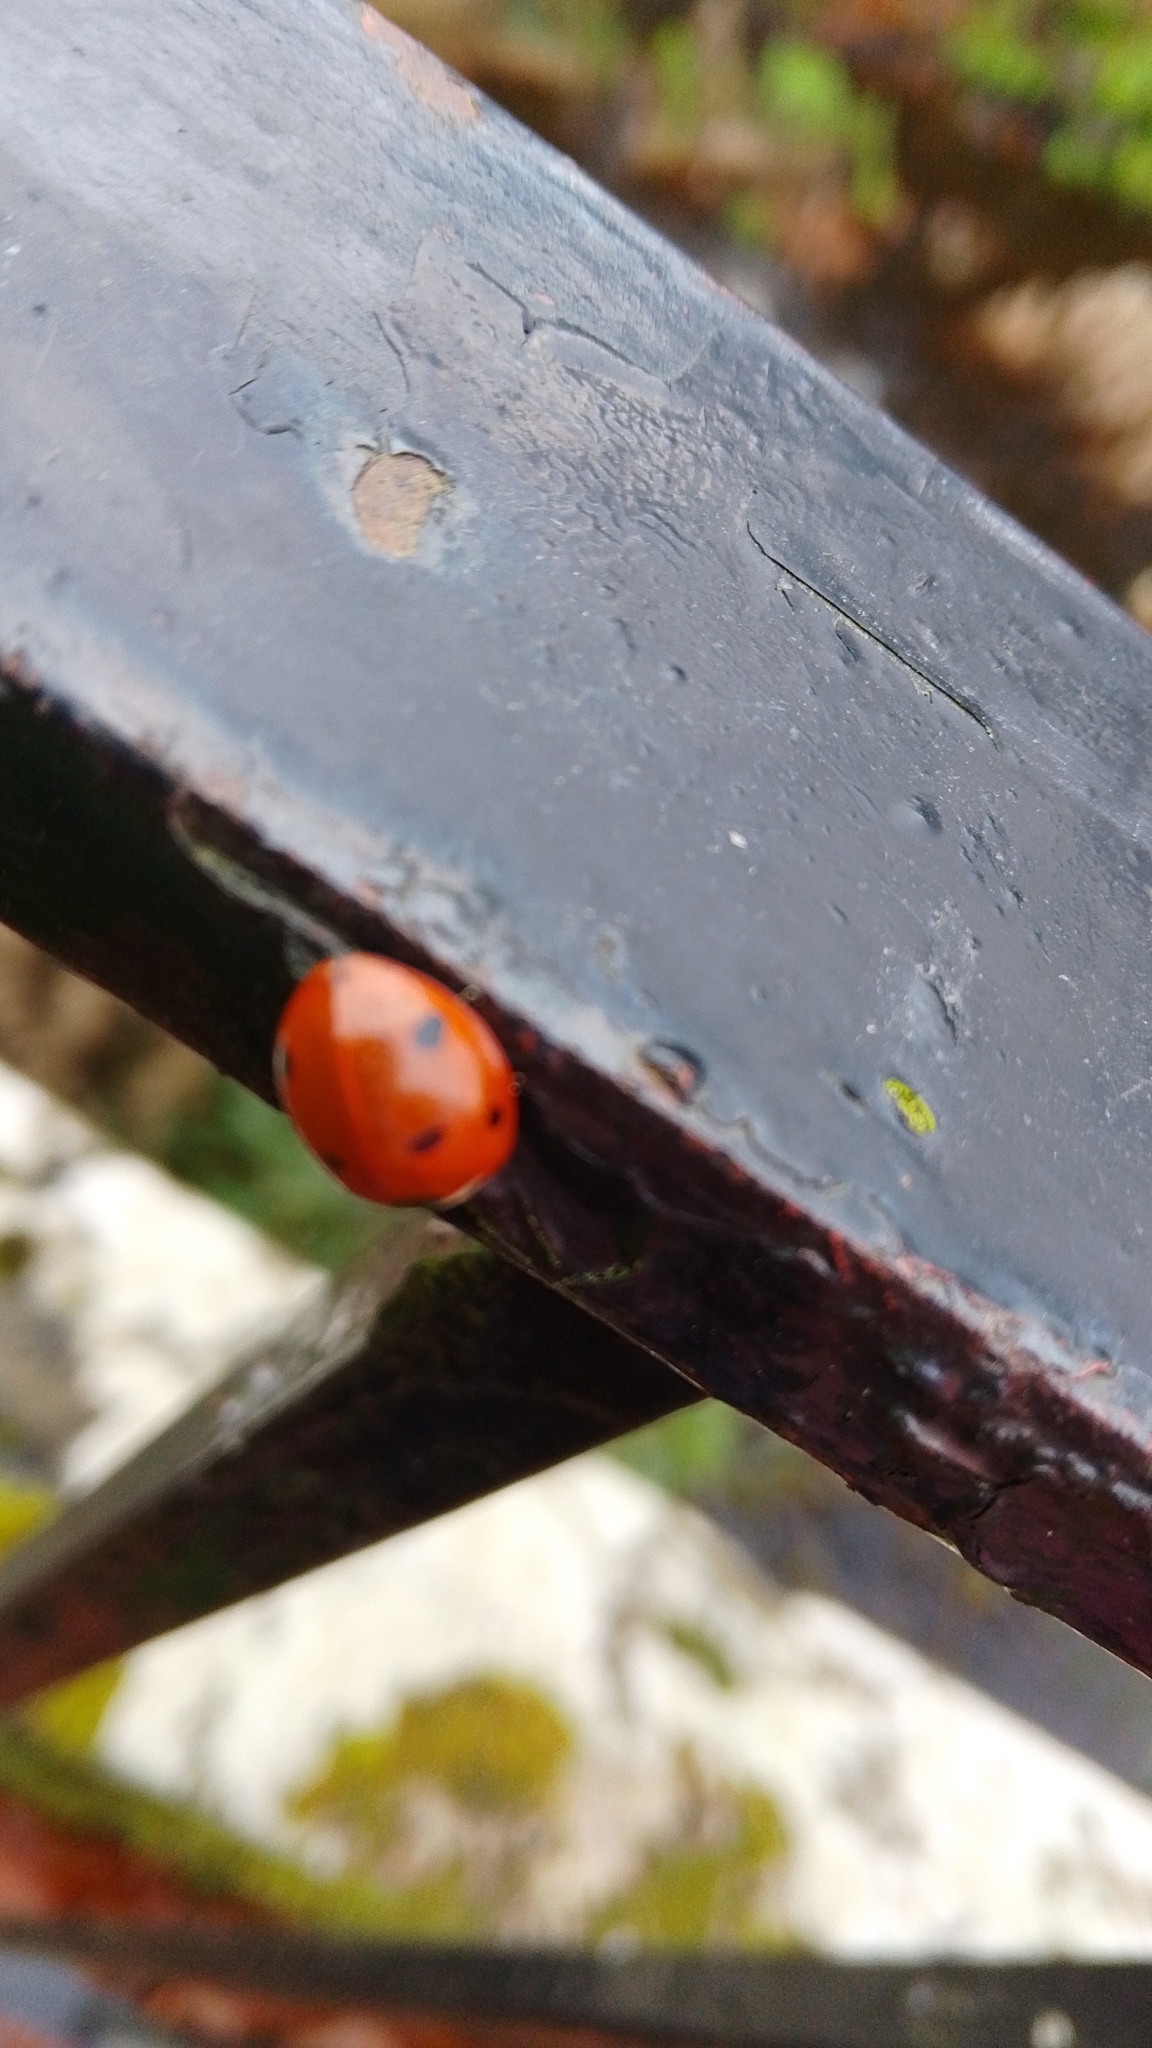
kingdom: Animalia
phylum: Arthropoda
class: Insecta
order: Coleoptera
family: Coccinellidae
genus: Coccinella
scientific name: Coccinella septempunctata
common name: Sevenspotted lady beetle
